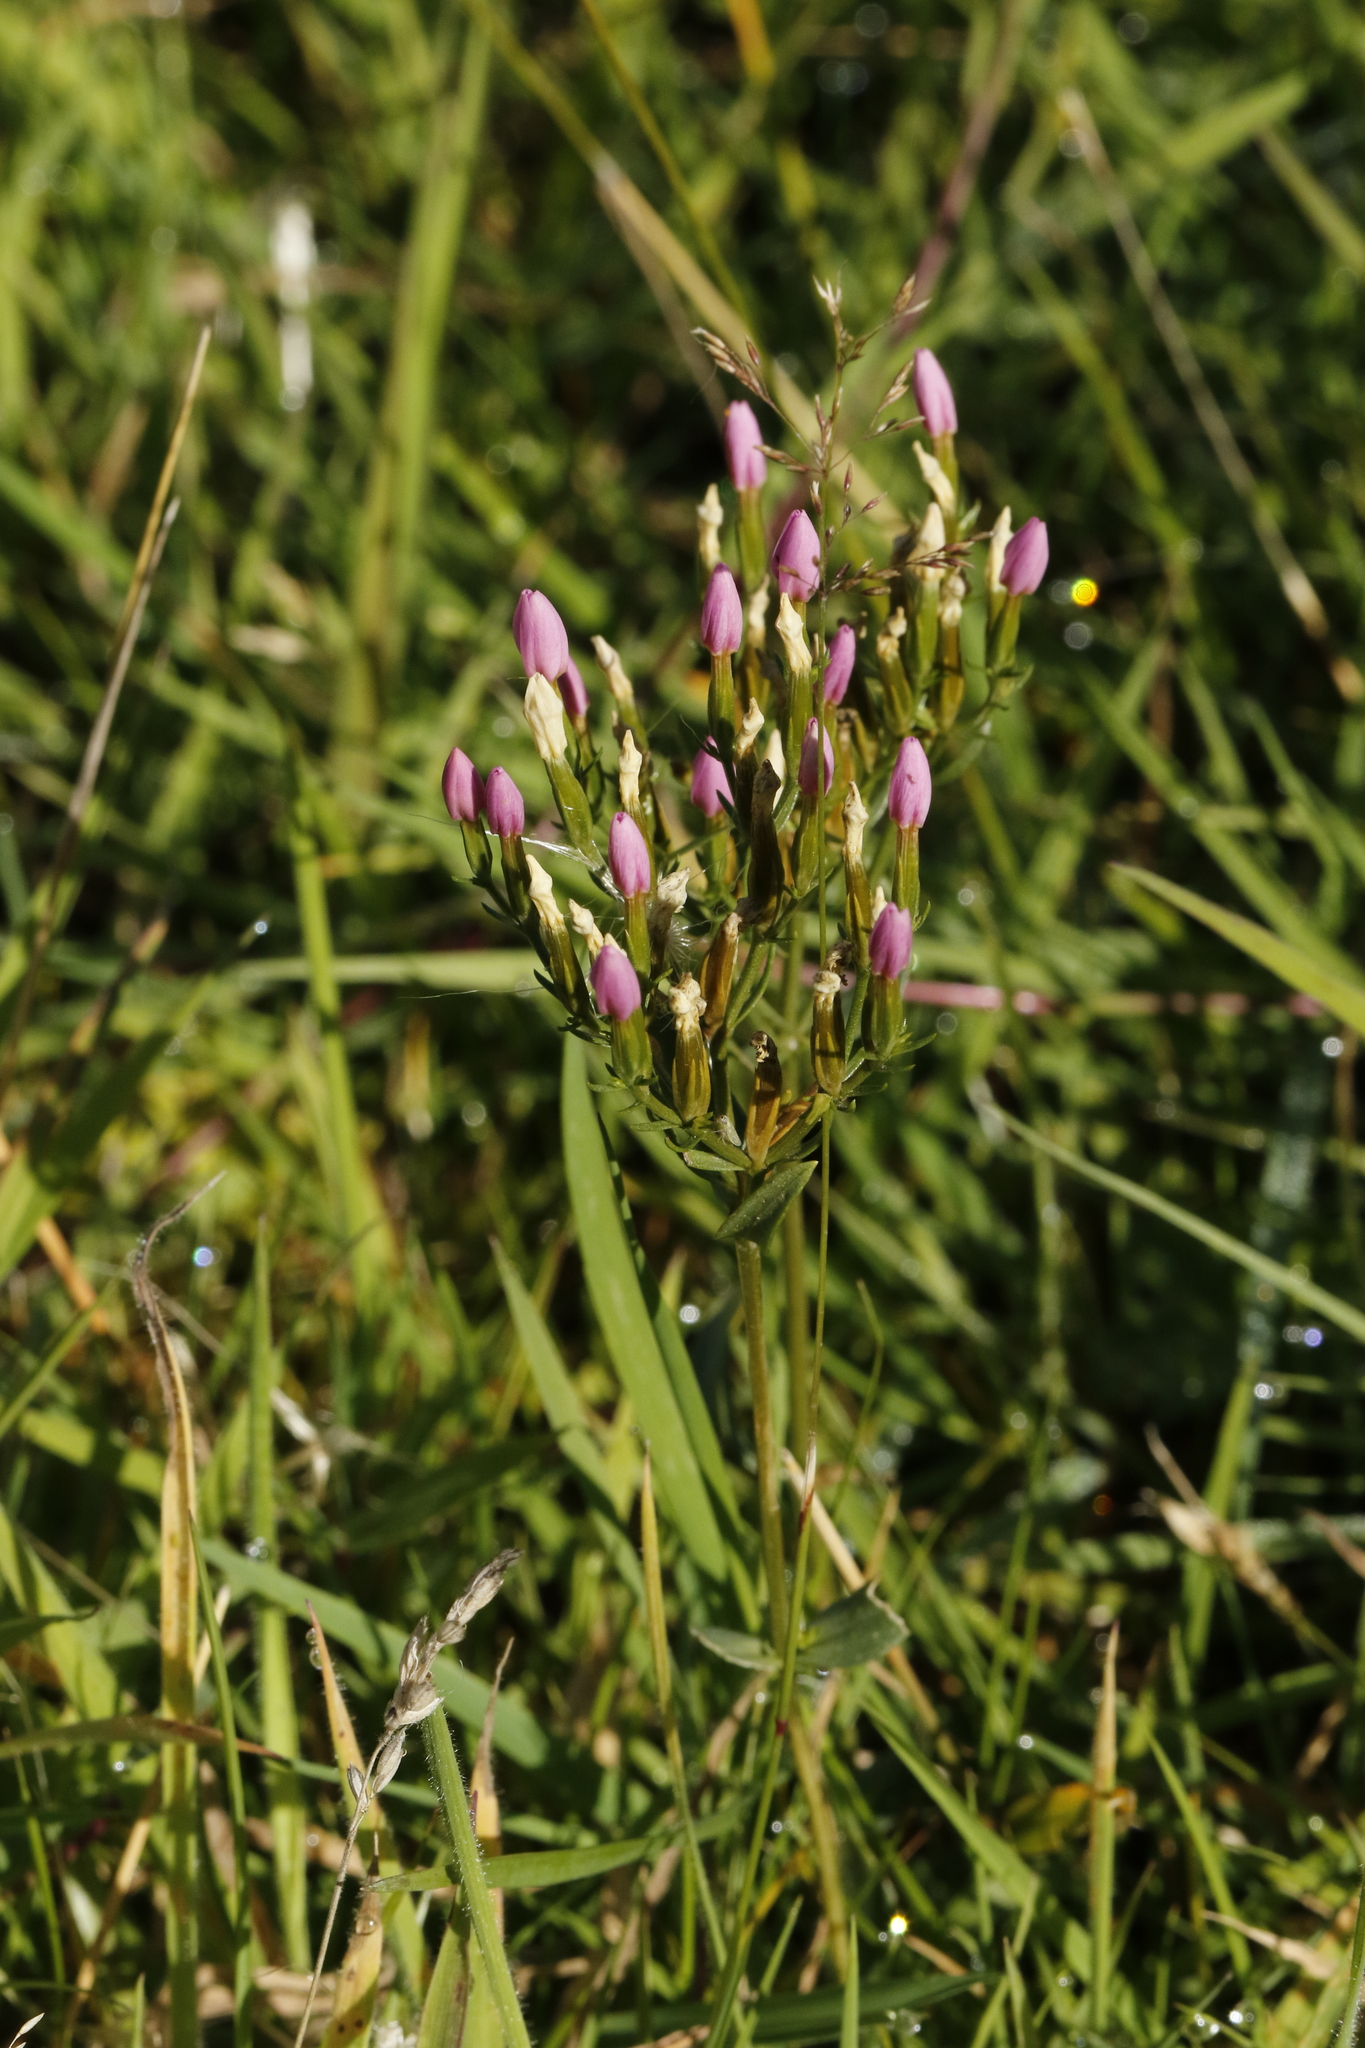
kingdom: Plantae
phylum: Tracheophyta
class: Magnoliopsida
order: Gentianales
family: Gentianaceae
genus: Centaurium
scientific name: Centaurium erythraea
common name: Common centaury
